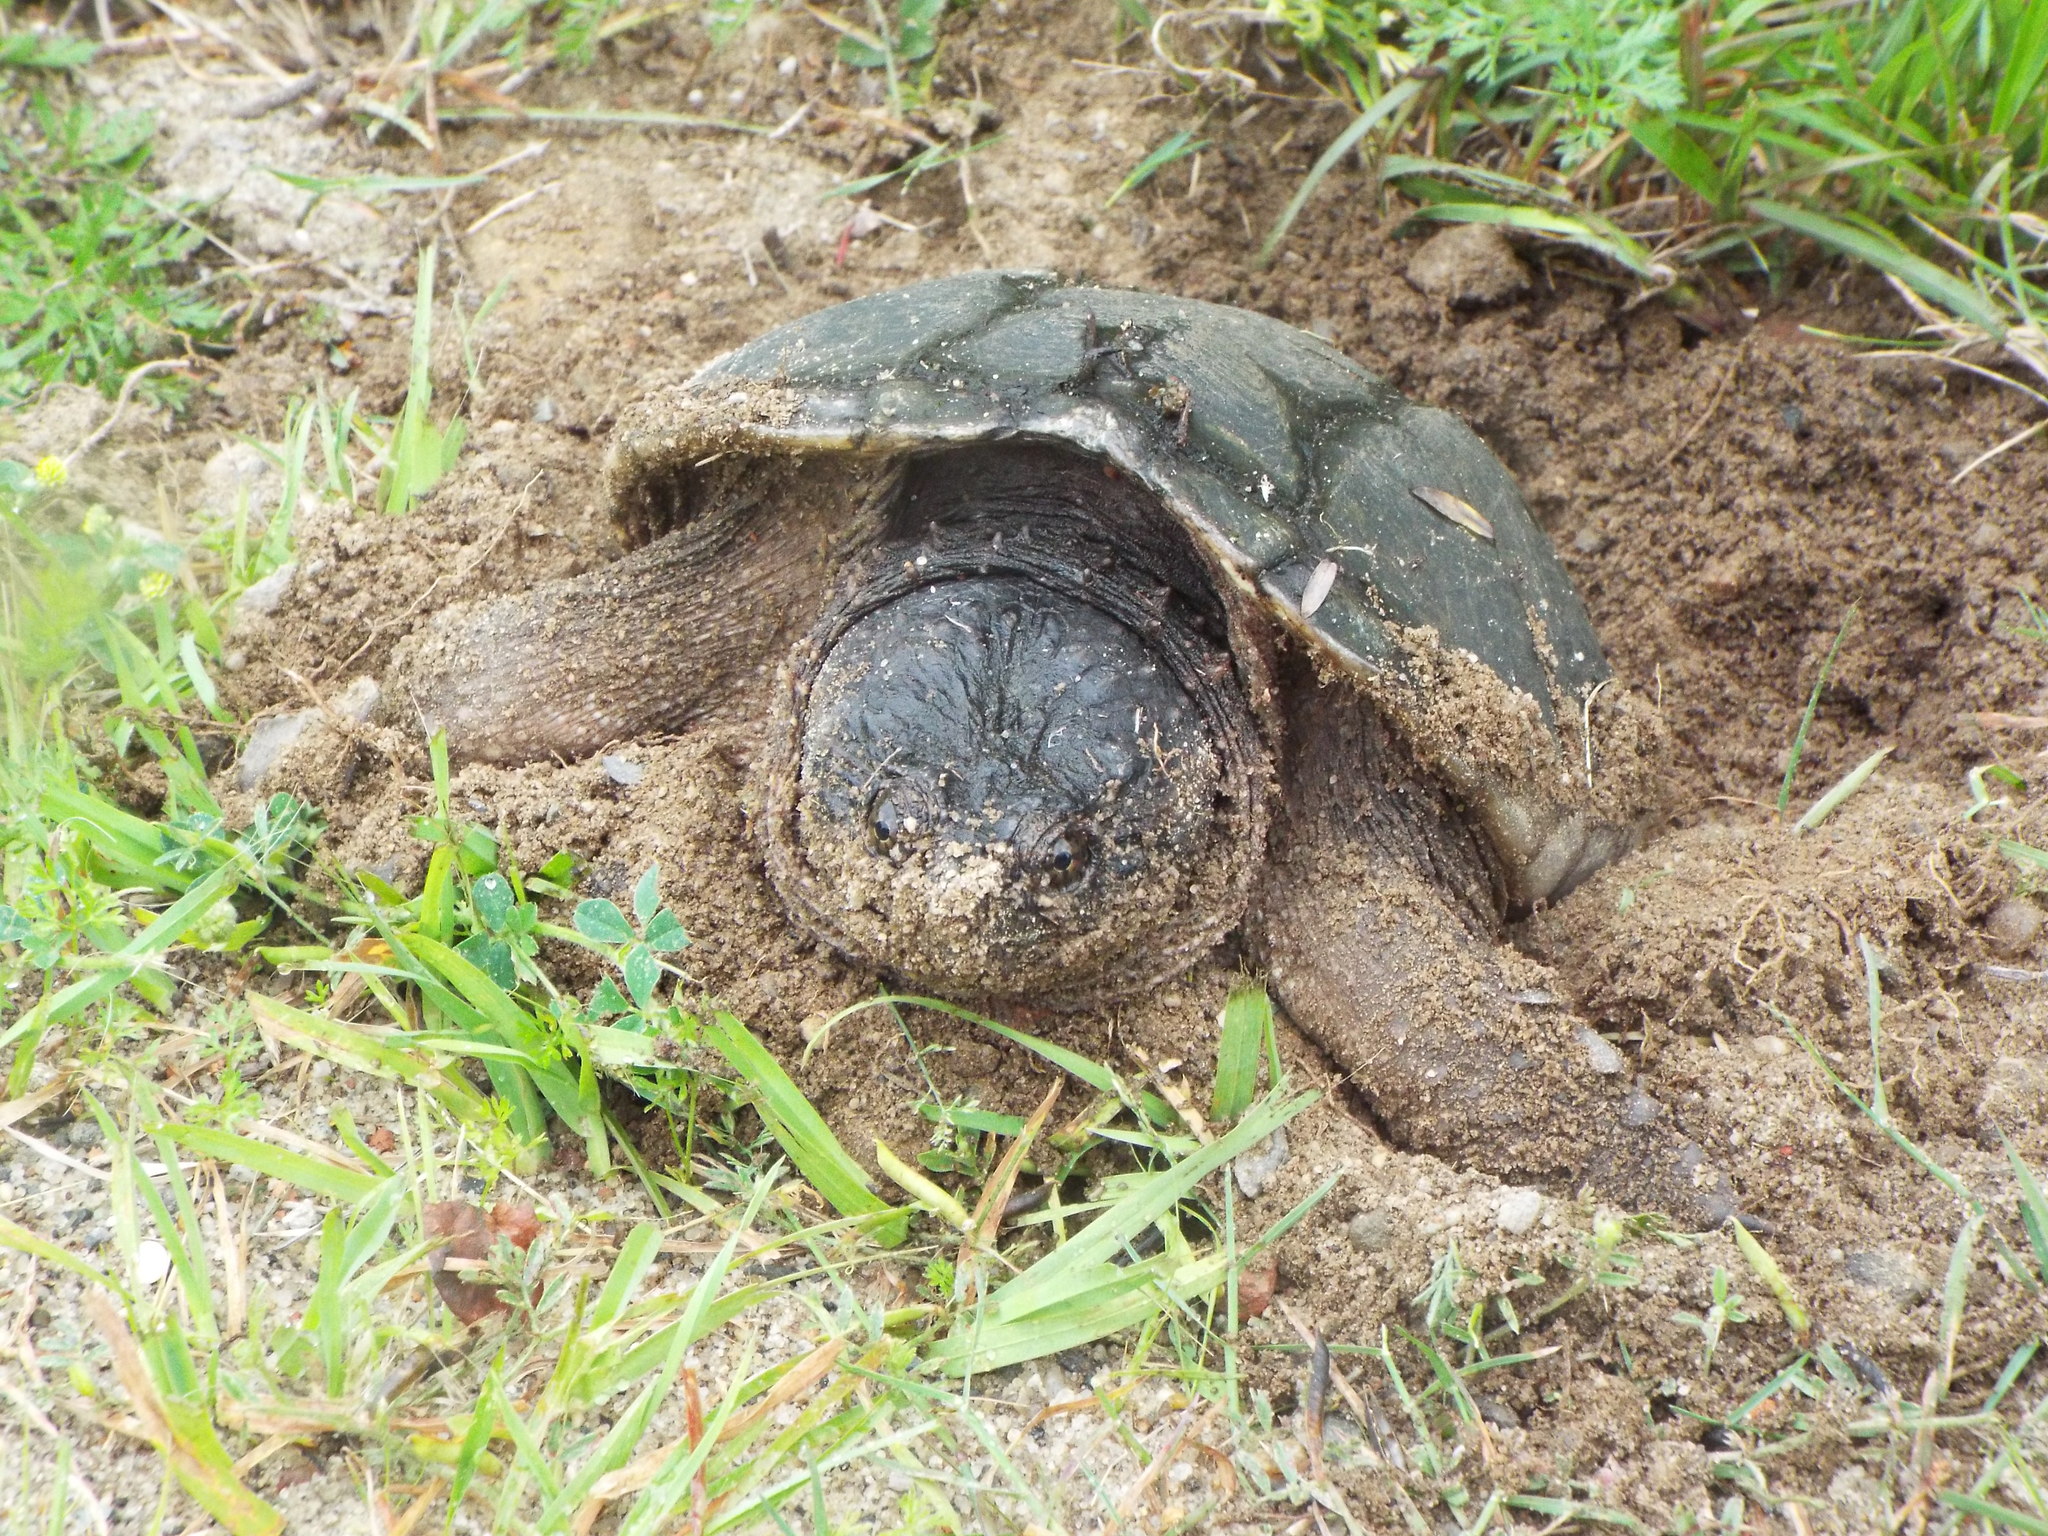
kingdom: Animalia
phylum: Chordata
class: Testudines
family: Chelydridae
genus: Chelydra
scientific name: Chelydra serpentina
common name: Common snapping turtle
